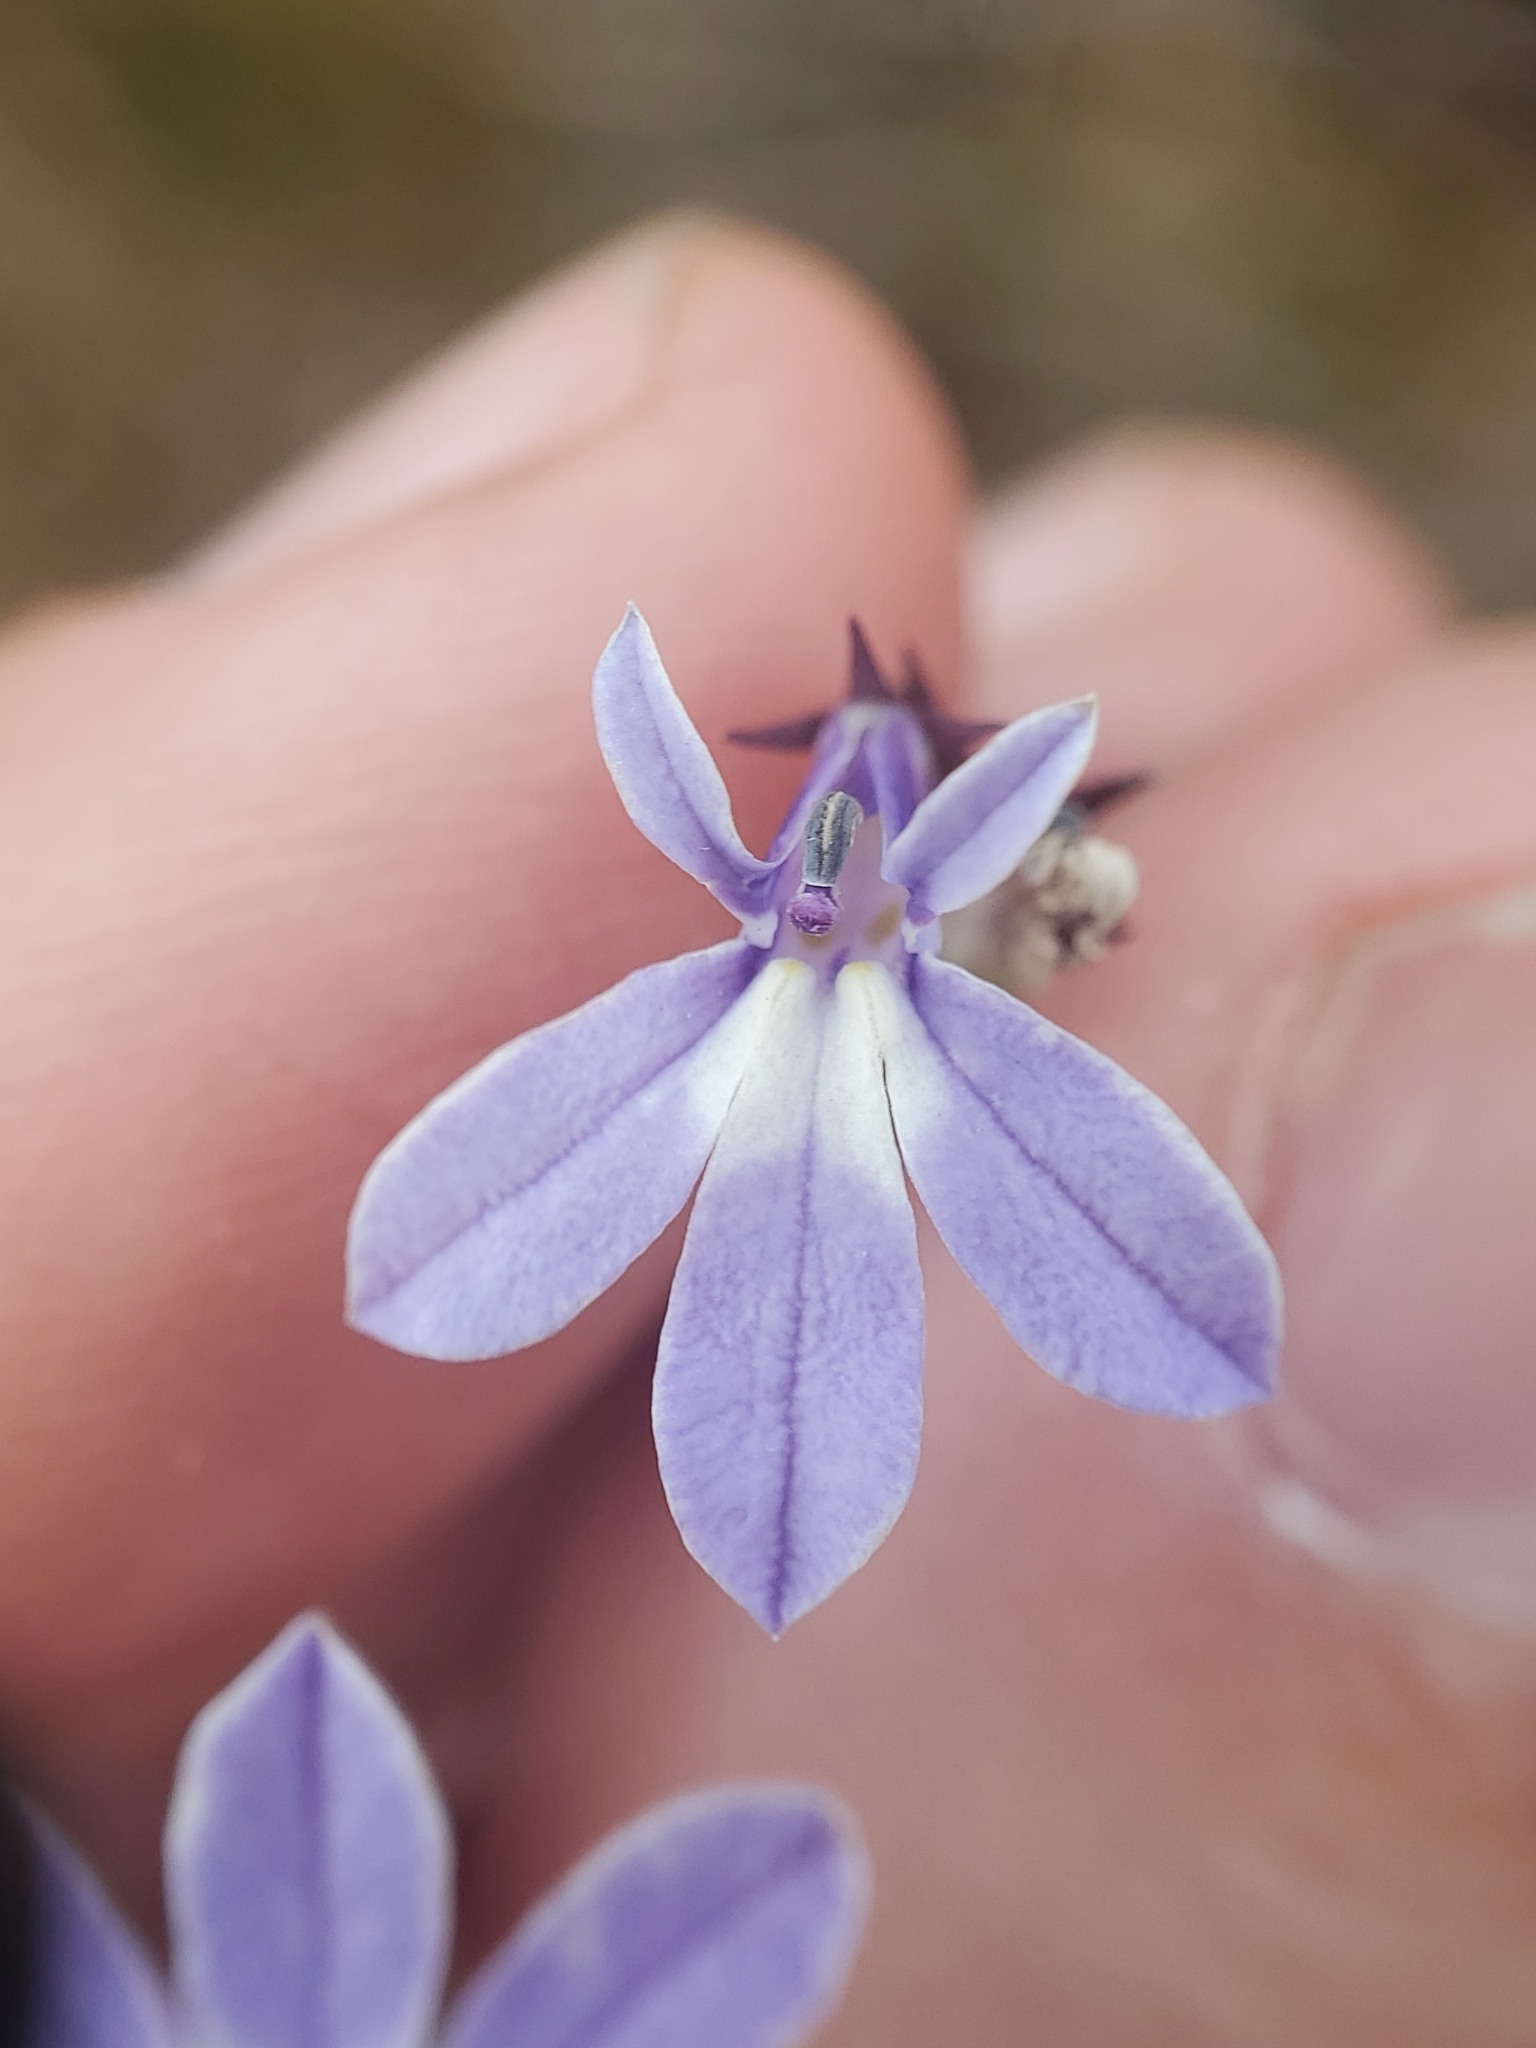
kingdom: Plantae
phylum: Tracheophyta
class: Magnoliopsida
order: Asterales
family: Campanulaceae
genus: Lobelia
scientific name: Lobelia kalmii
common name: Kalm's lobelia
